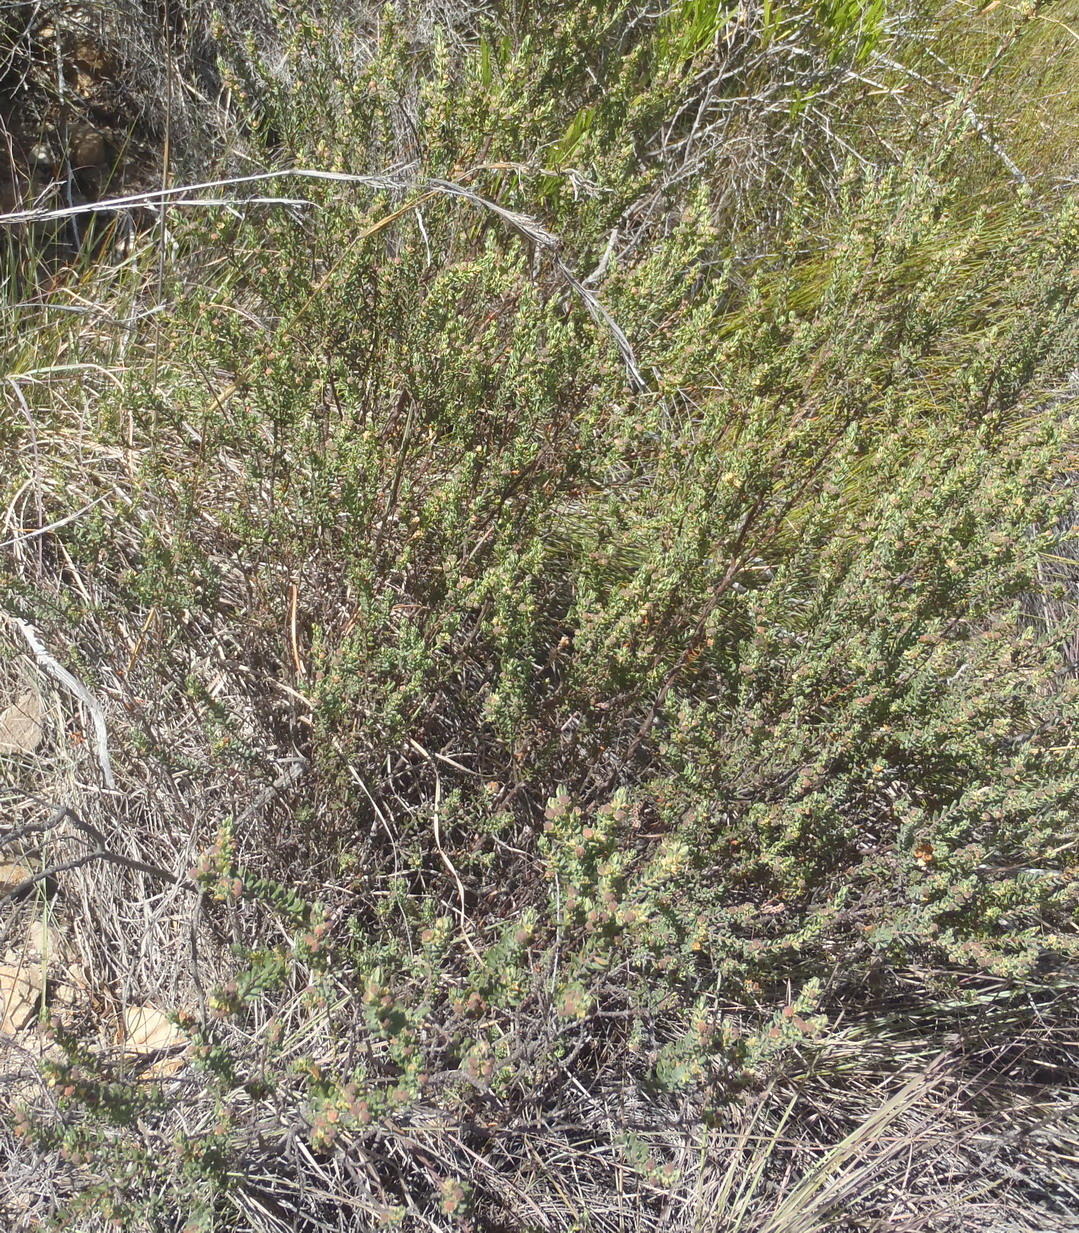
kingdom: Plantae
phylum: Tracheophyta
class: Magnoliopsida
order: Malpighiales
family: Peraceae
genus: Clutia
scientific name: Clutia polifolia
